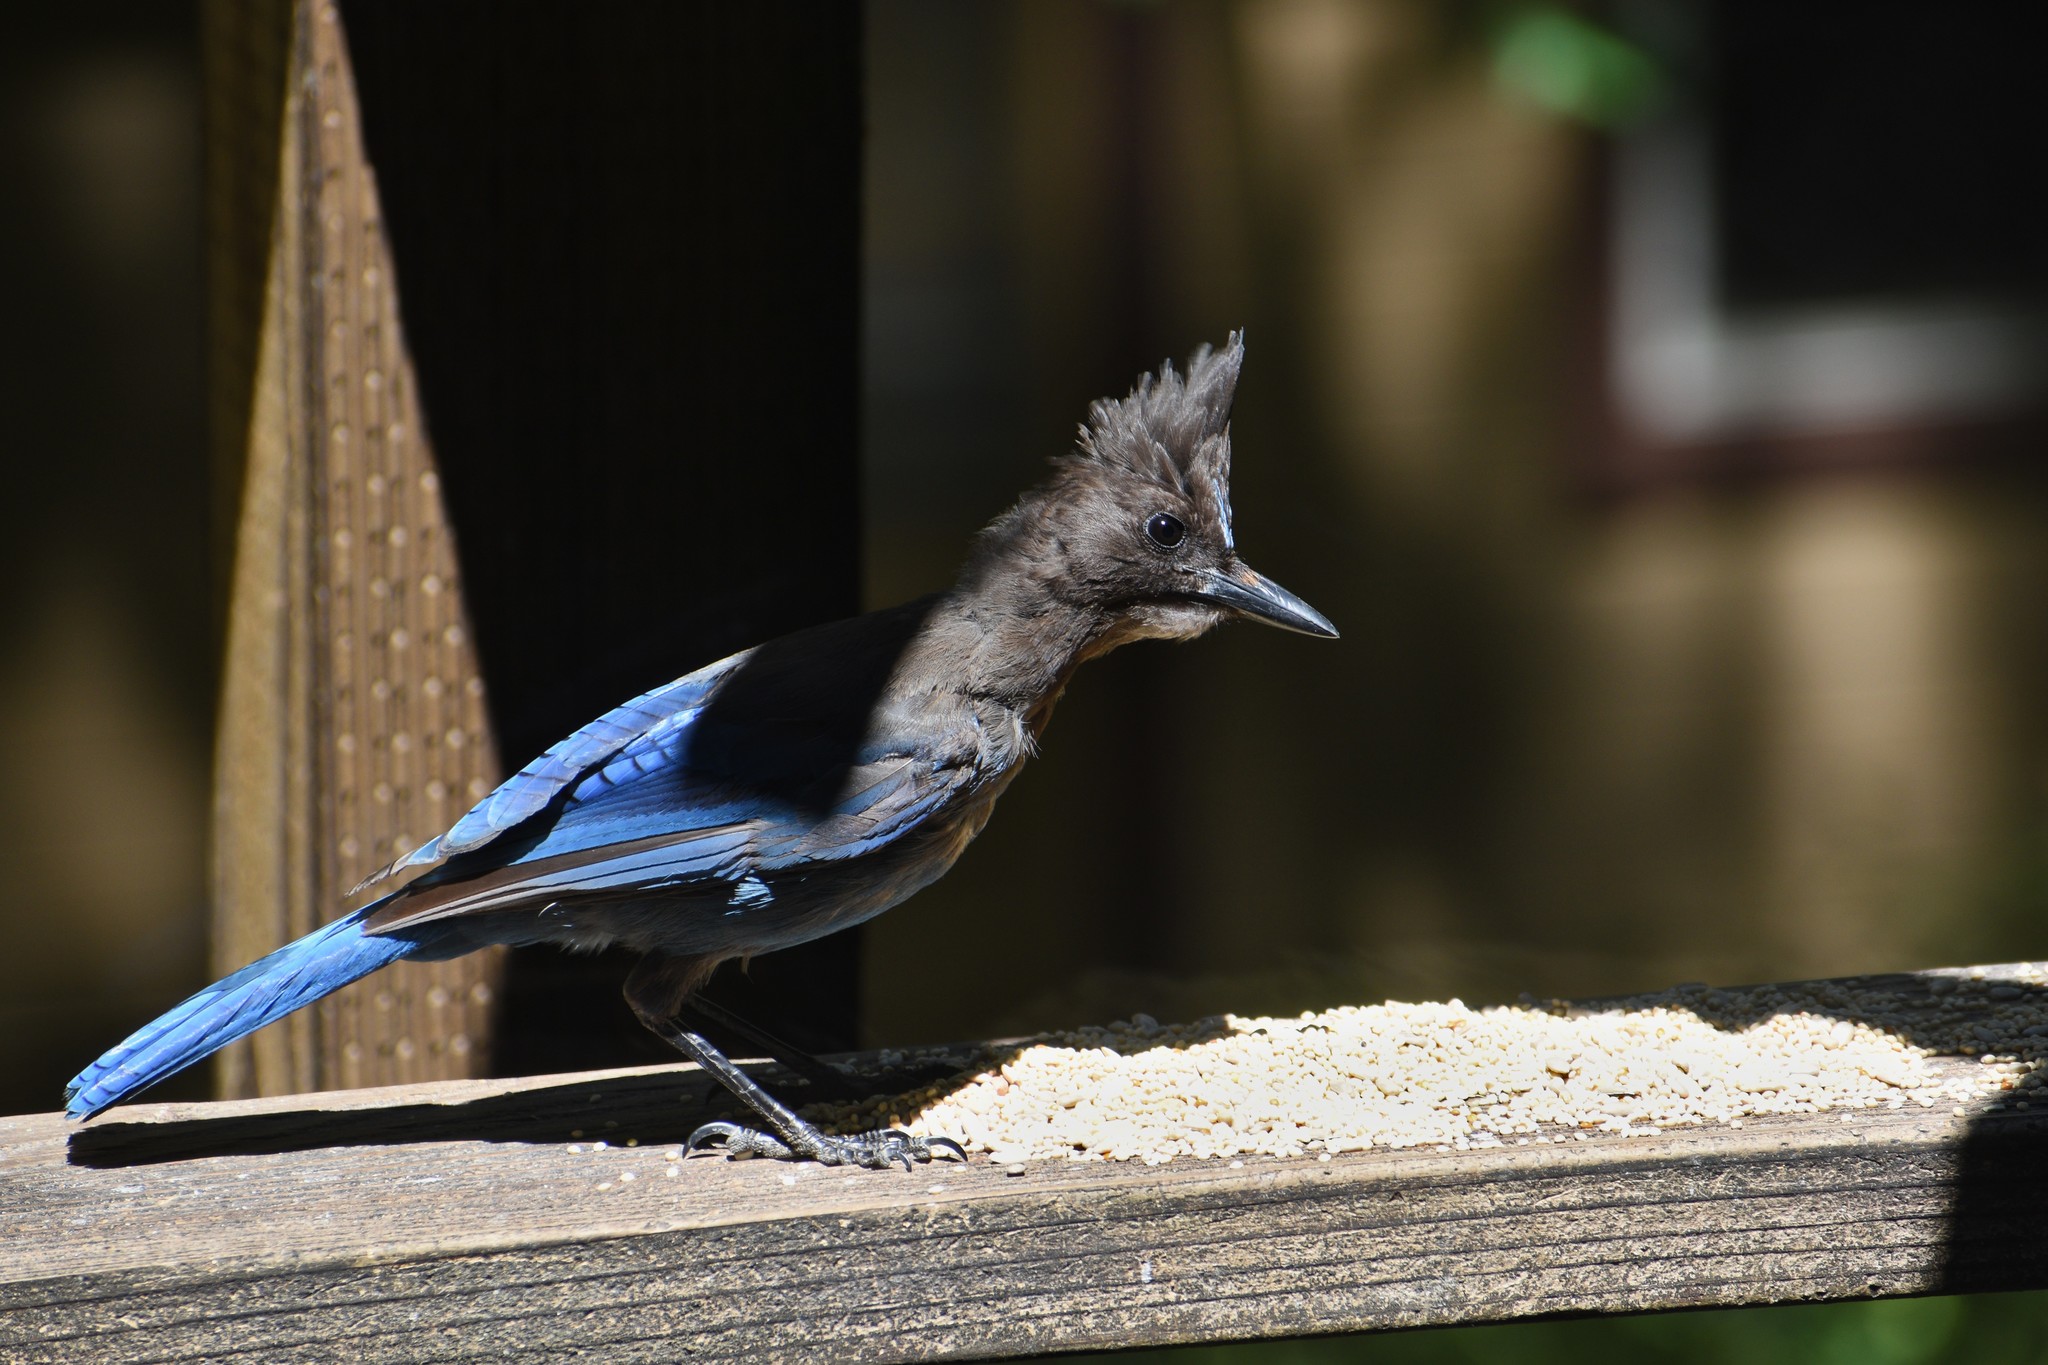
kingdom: Animalia
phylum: Chordata
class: Aves
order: Passeriformes
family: Corvidae
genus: Cyanocitta
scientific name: Cyanocitta stelleri
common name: Steller's jay
